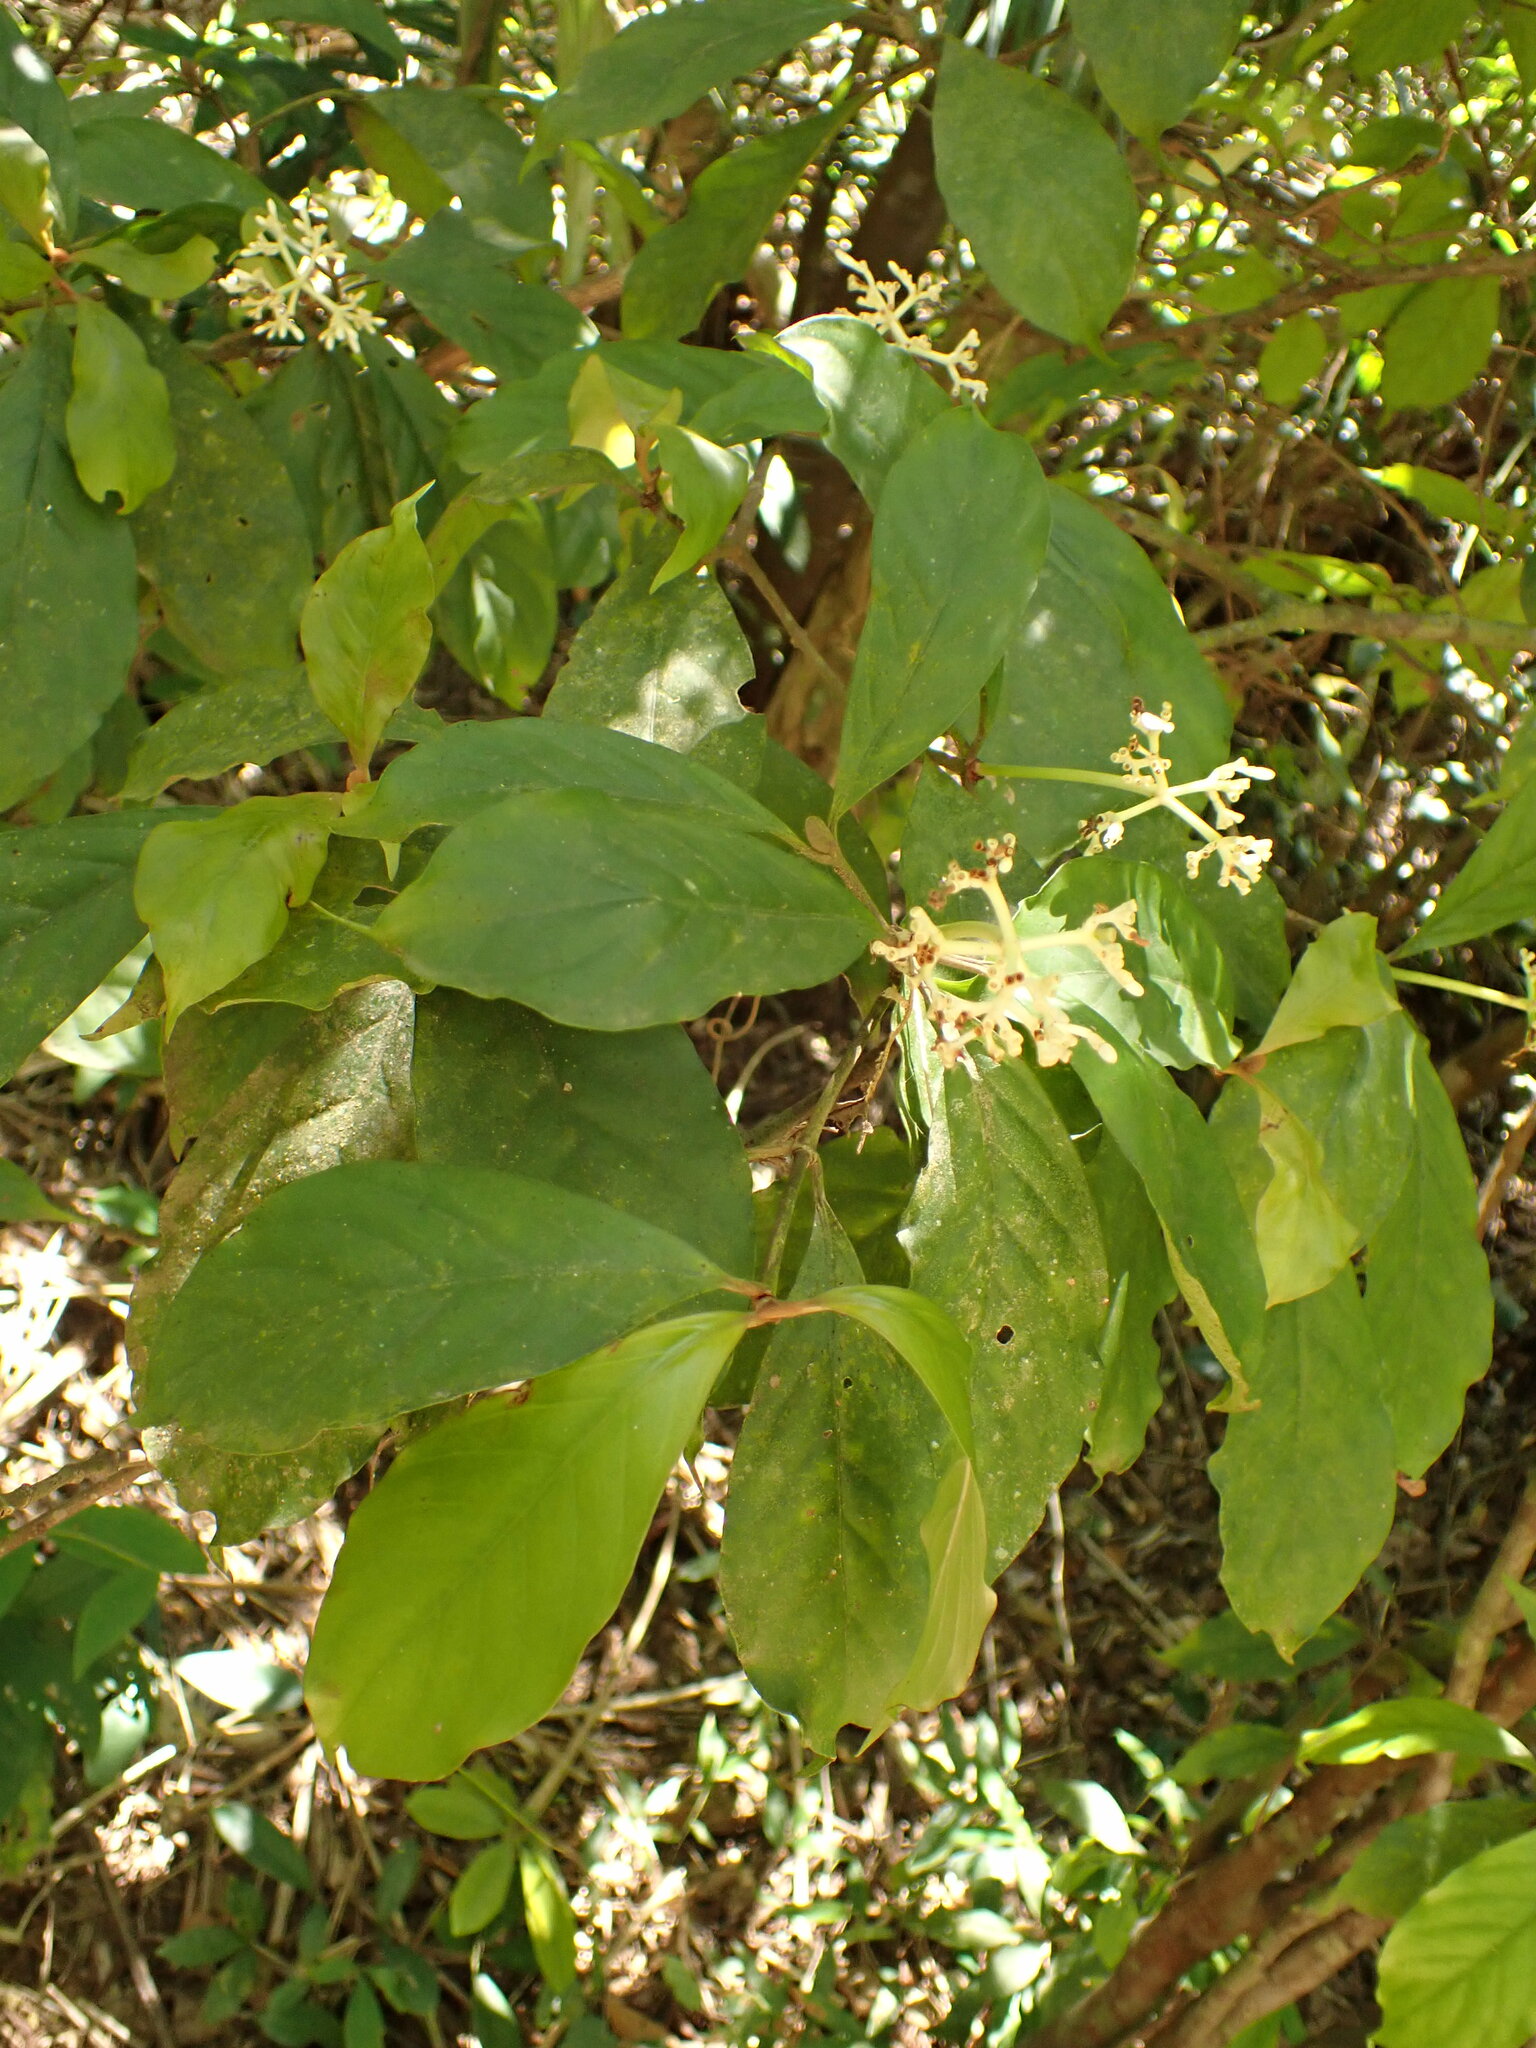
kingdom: Plantae
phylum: Tracheophyta
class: Magnoliopsida
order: Gentianales
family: Rubiaceae
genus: Psychotria
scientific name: Psychotria carthagenensis
